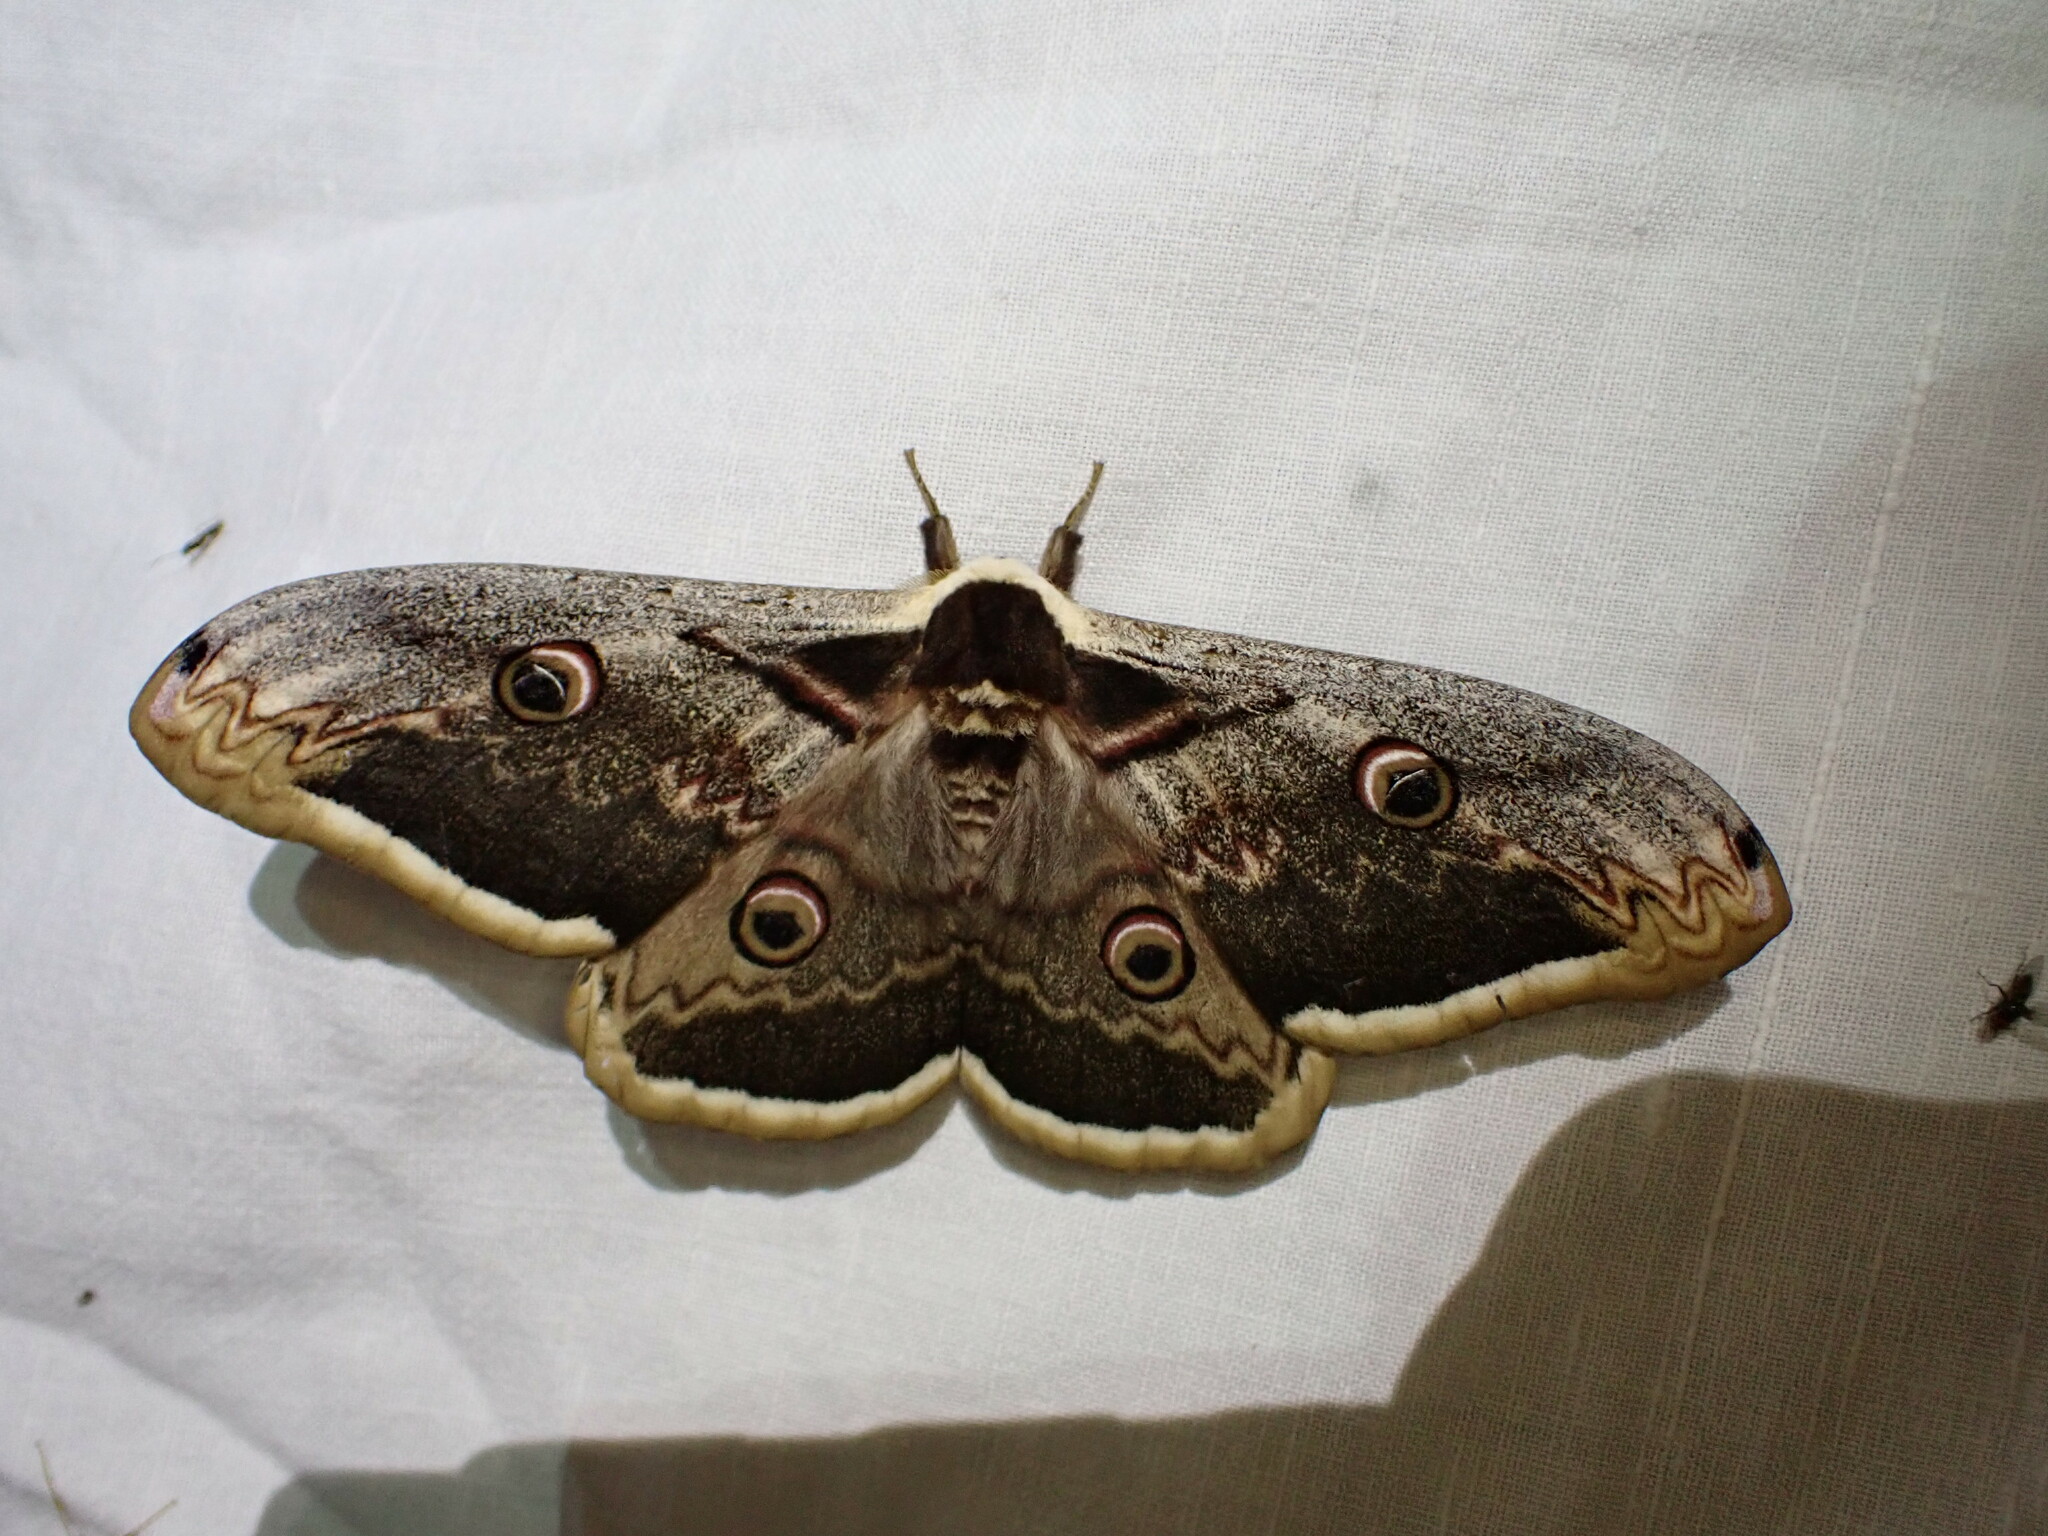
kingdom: Animalia
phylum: Arthropoda
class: Insecta
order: Lepidoptera
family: Saturniidae
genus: Saturnia
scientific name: Saturnia pyri
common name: Great peacock moth
